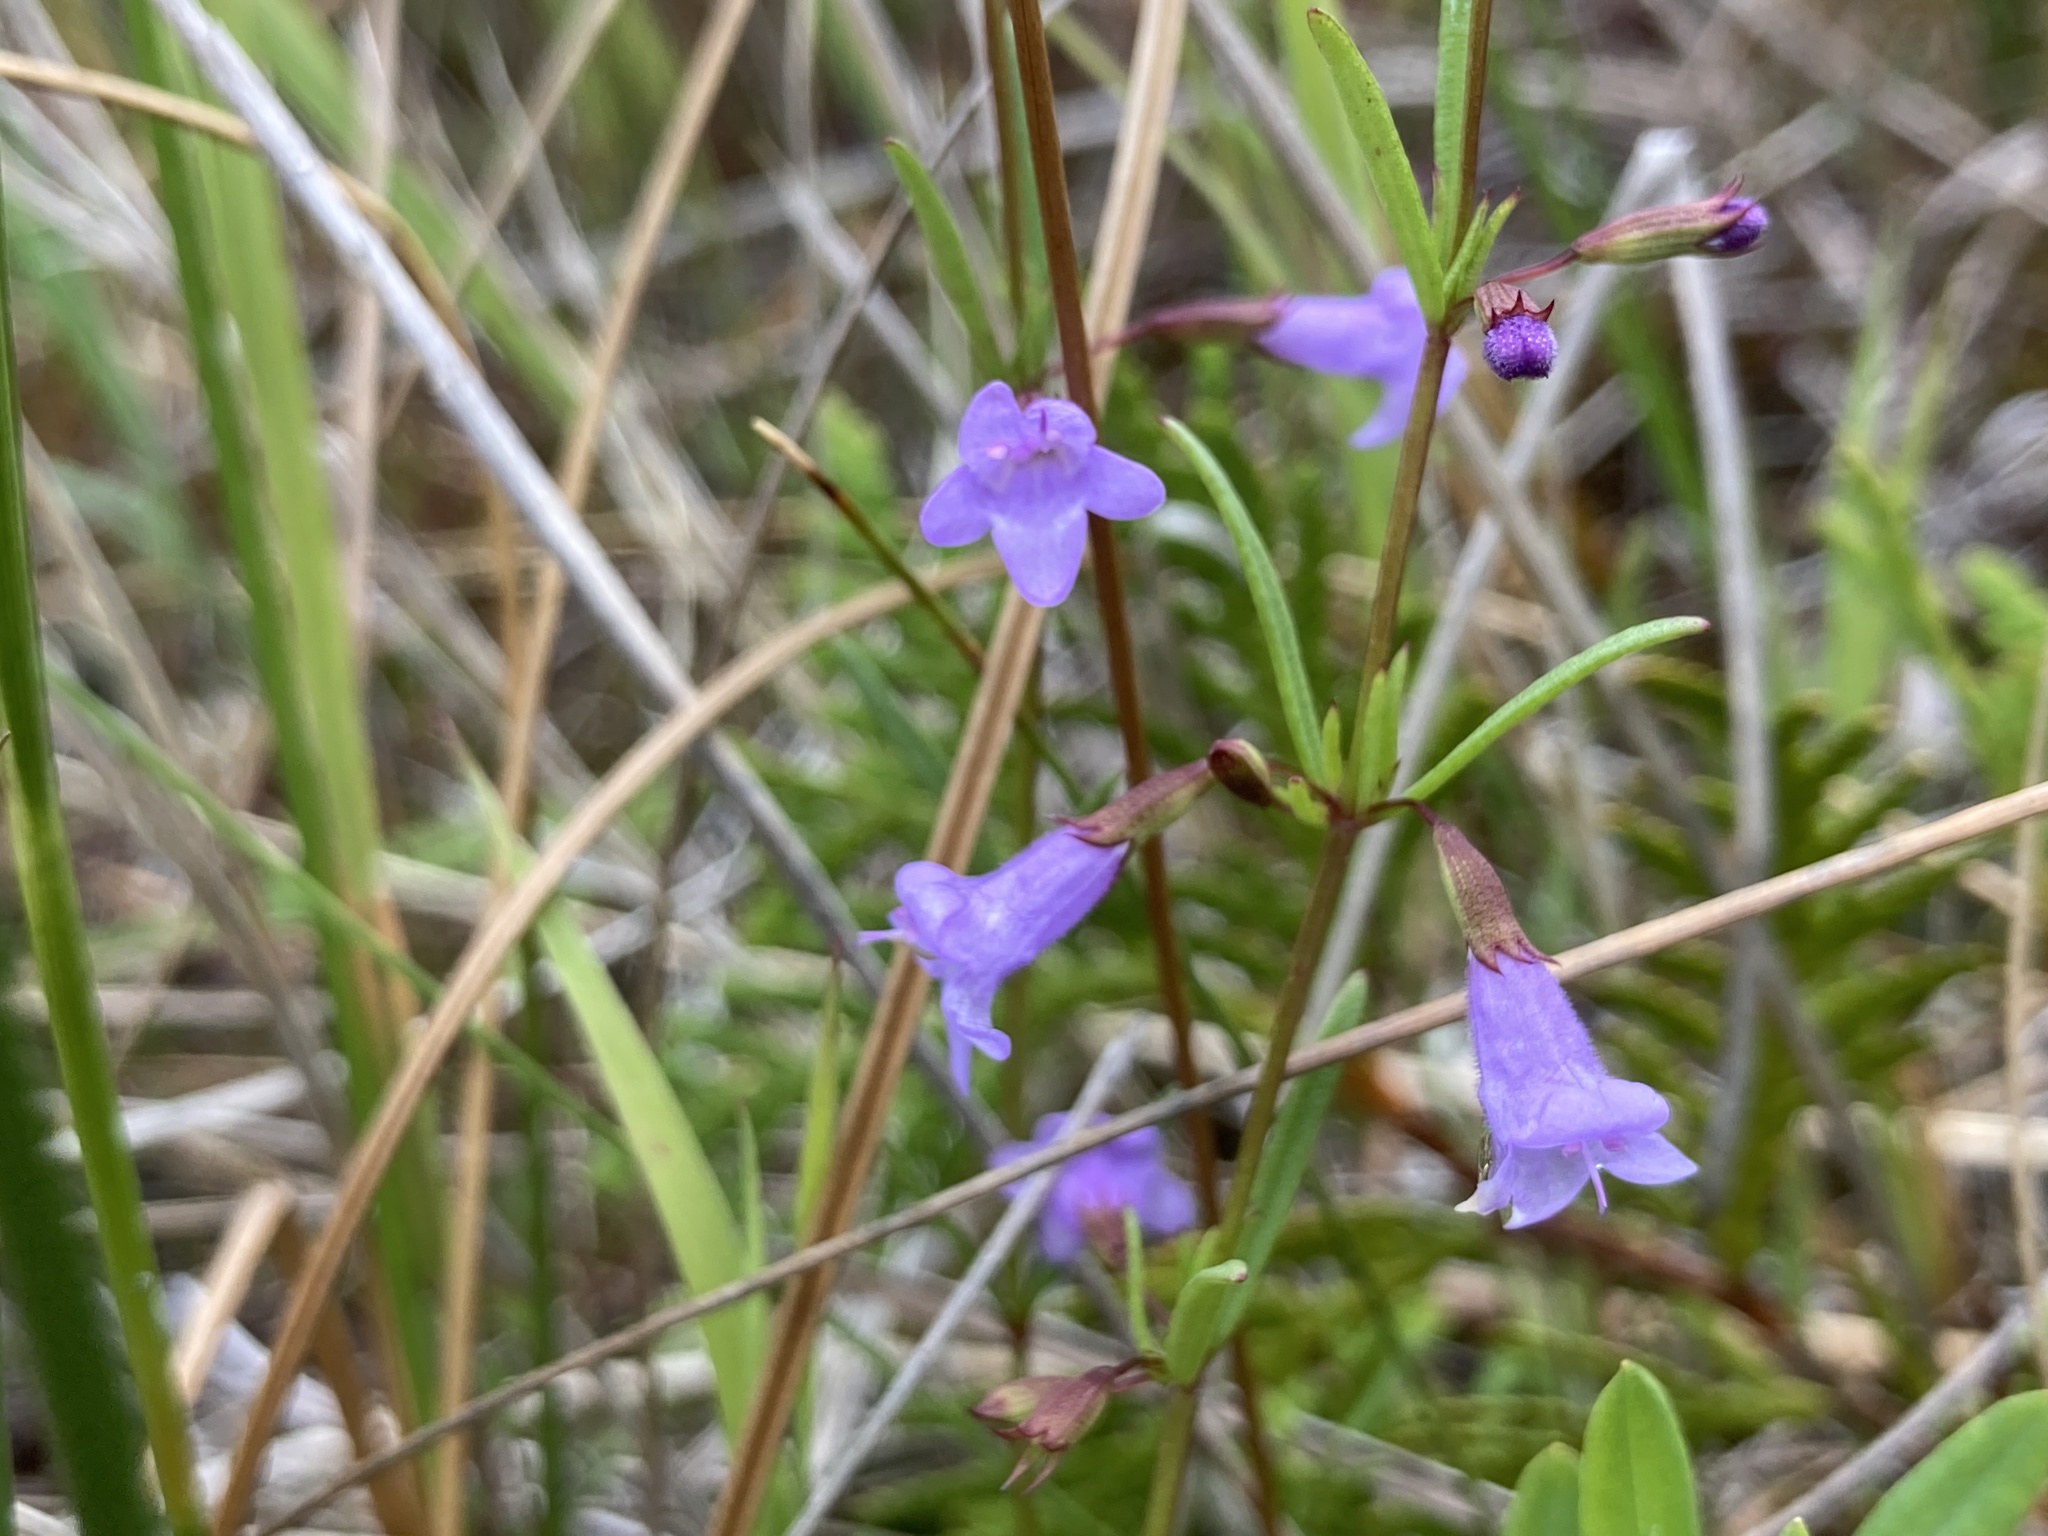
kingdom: Plantae
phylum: Tracheophyta
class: Magnoliopsida
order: Lamiales
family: Lamiaceae
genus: Clinopodium
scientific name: Clinopodium arkansanum
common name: Limestone calamint
